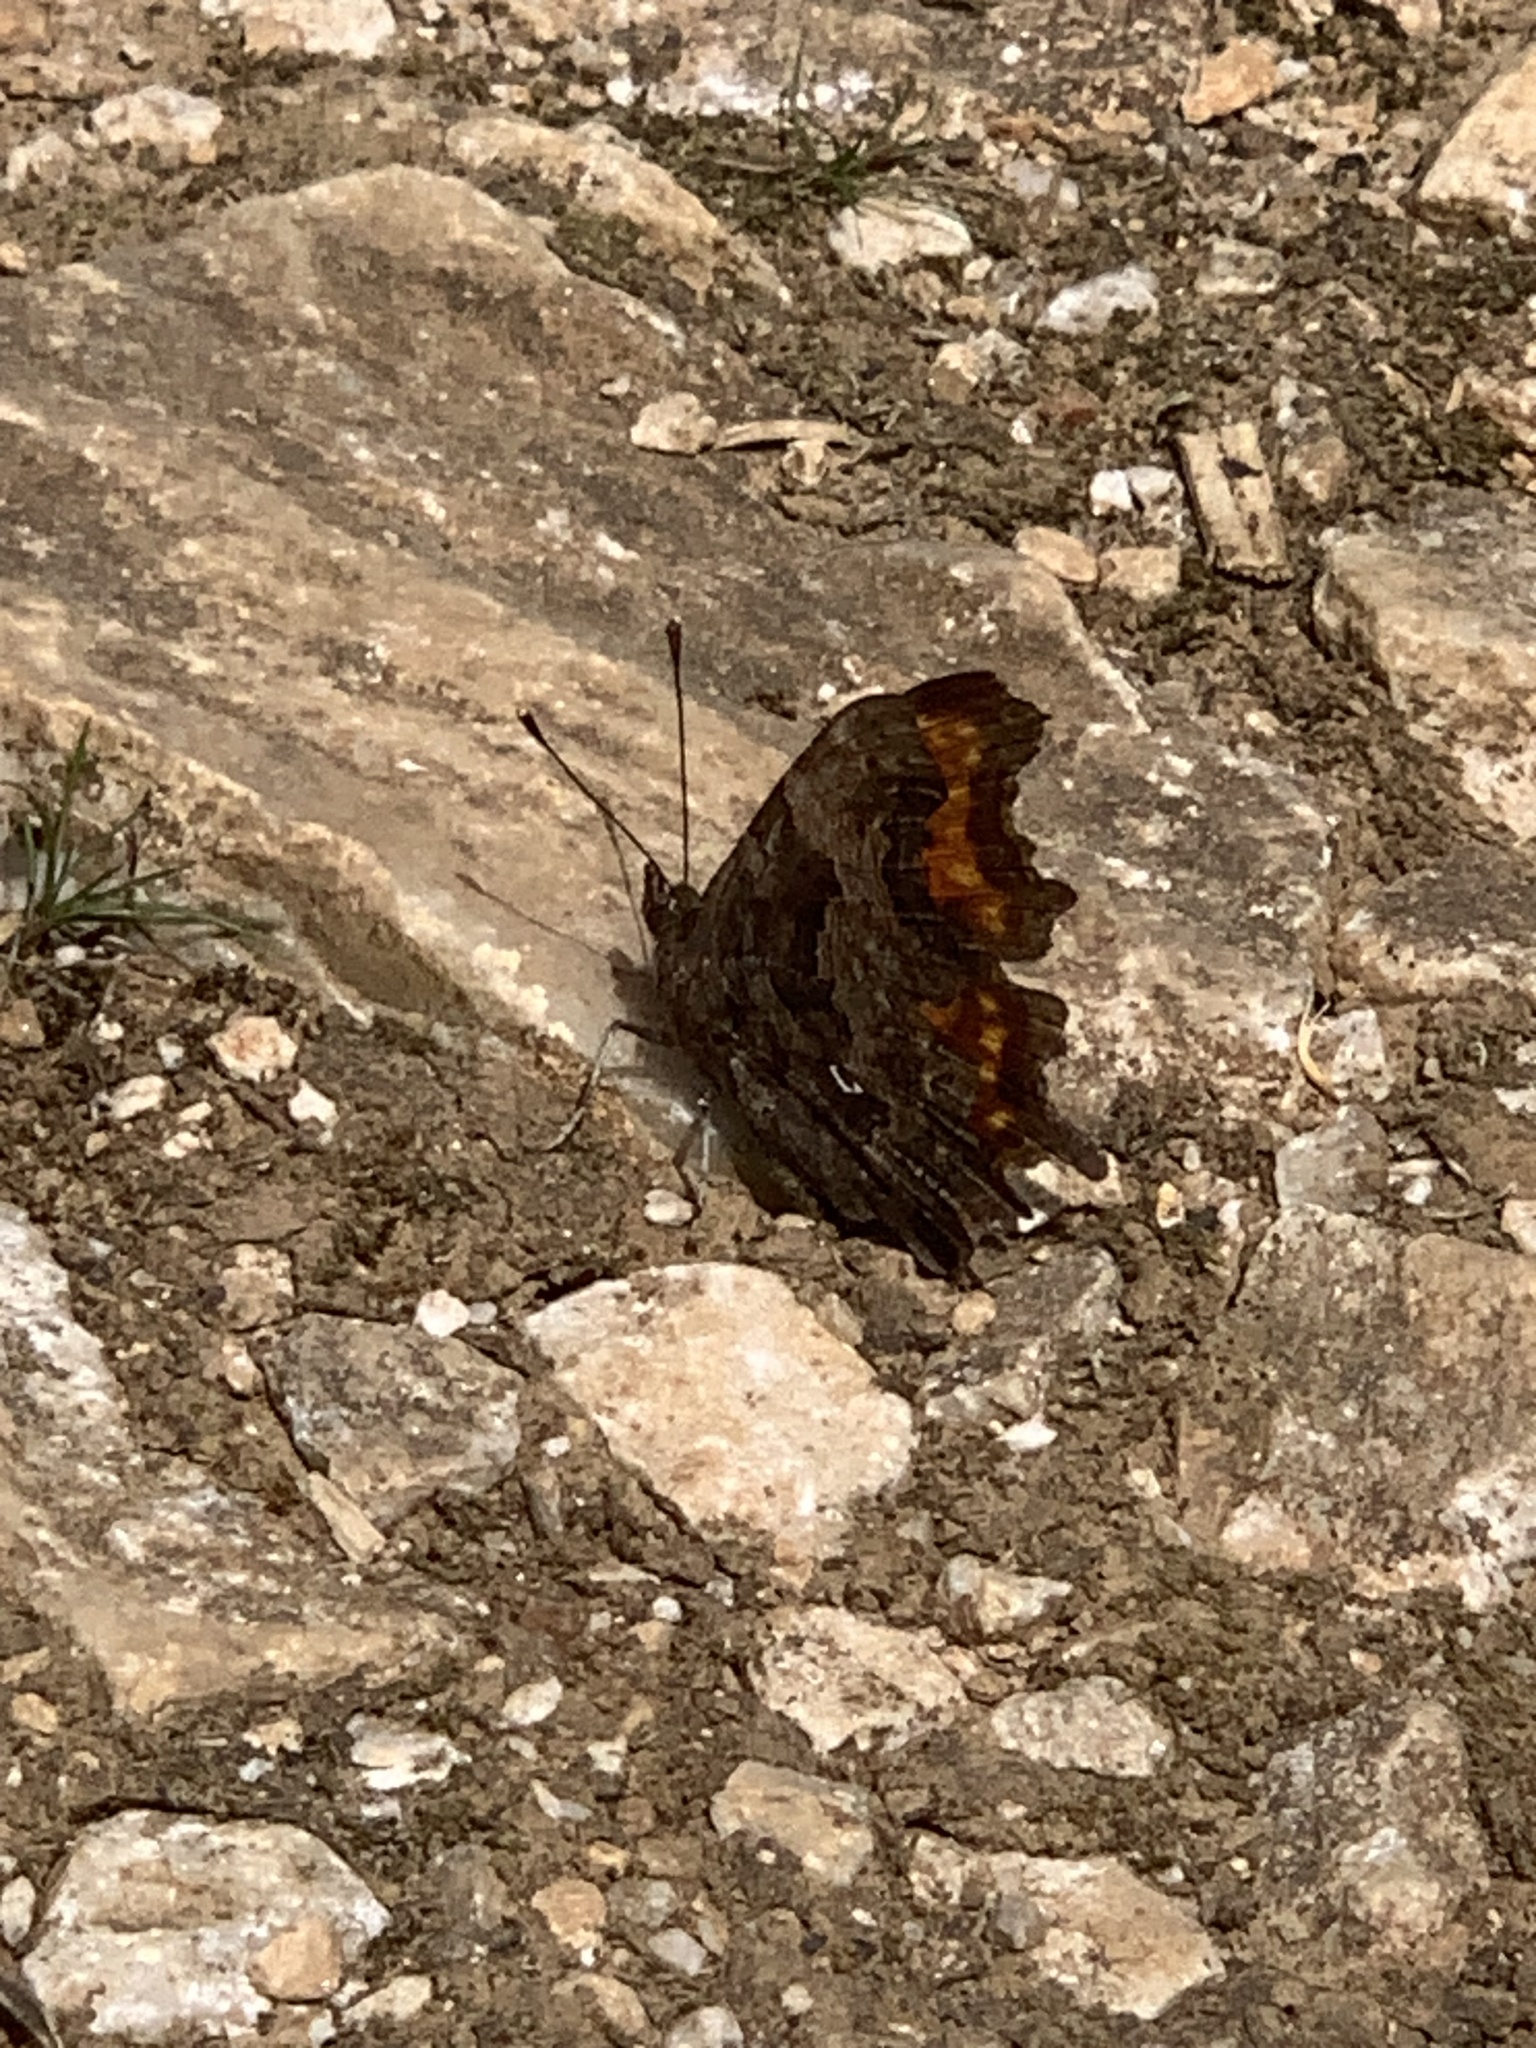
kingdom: Animalia
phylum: Arthropoda
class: Insecta
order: Lepidoptera
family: Nymphalidae
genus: Polygonia
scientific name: Polygonia c-album
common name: Comma
